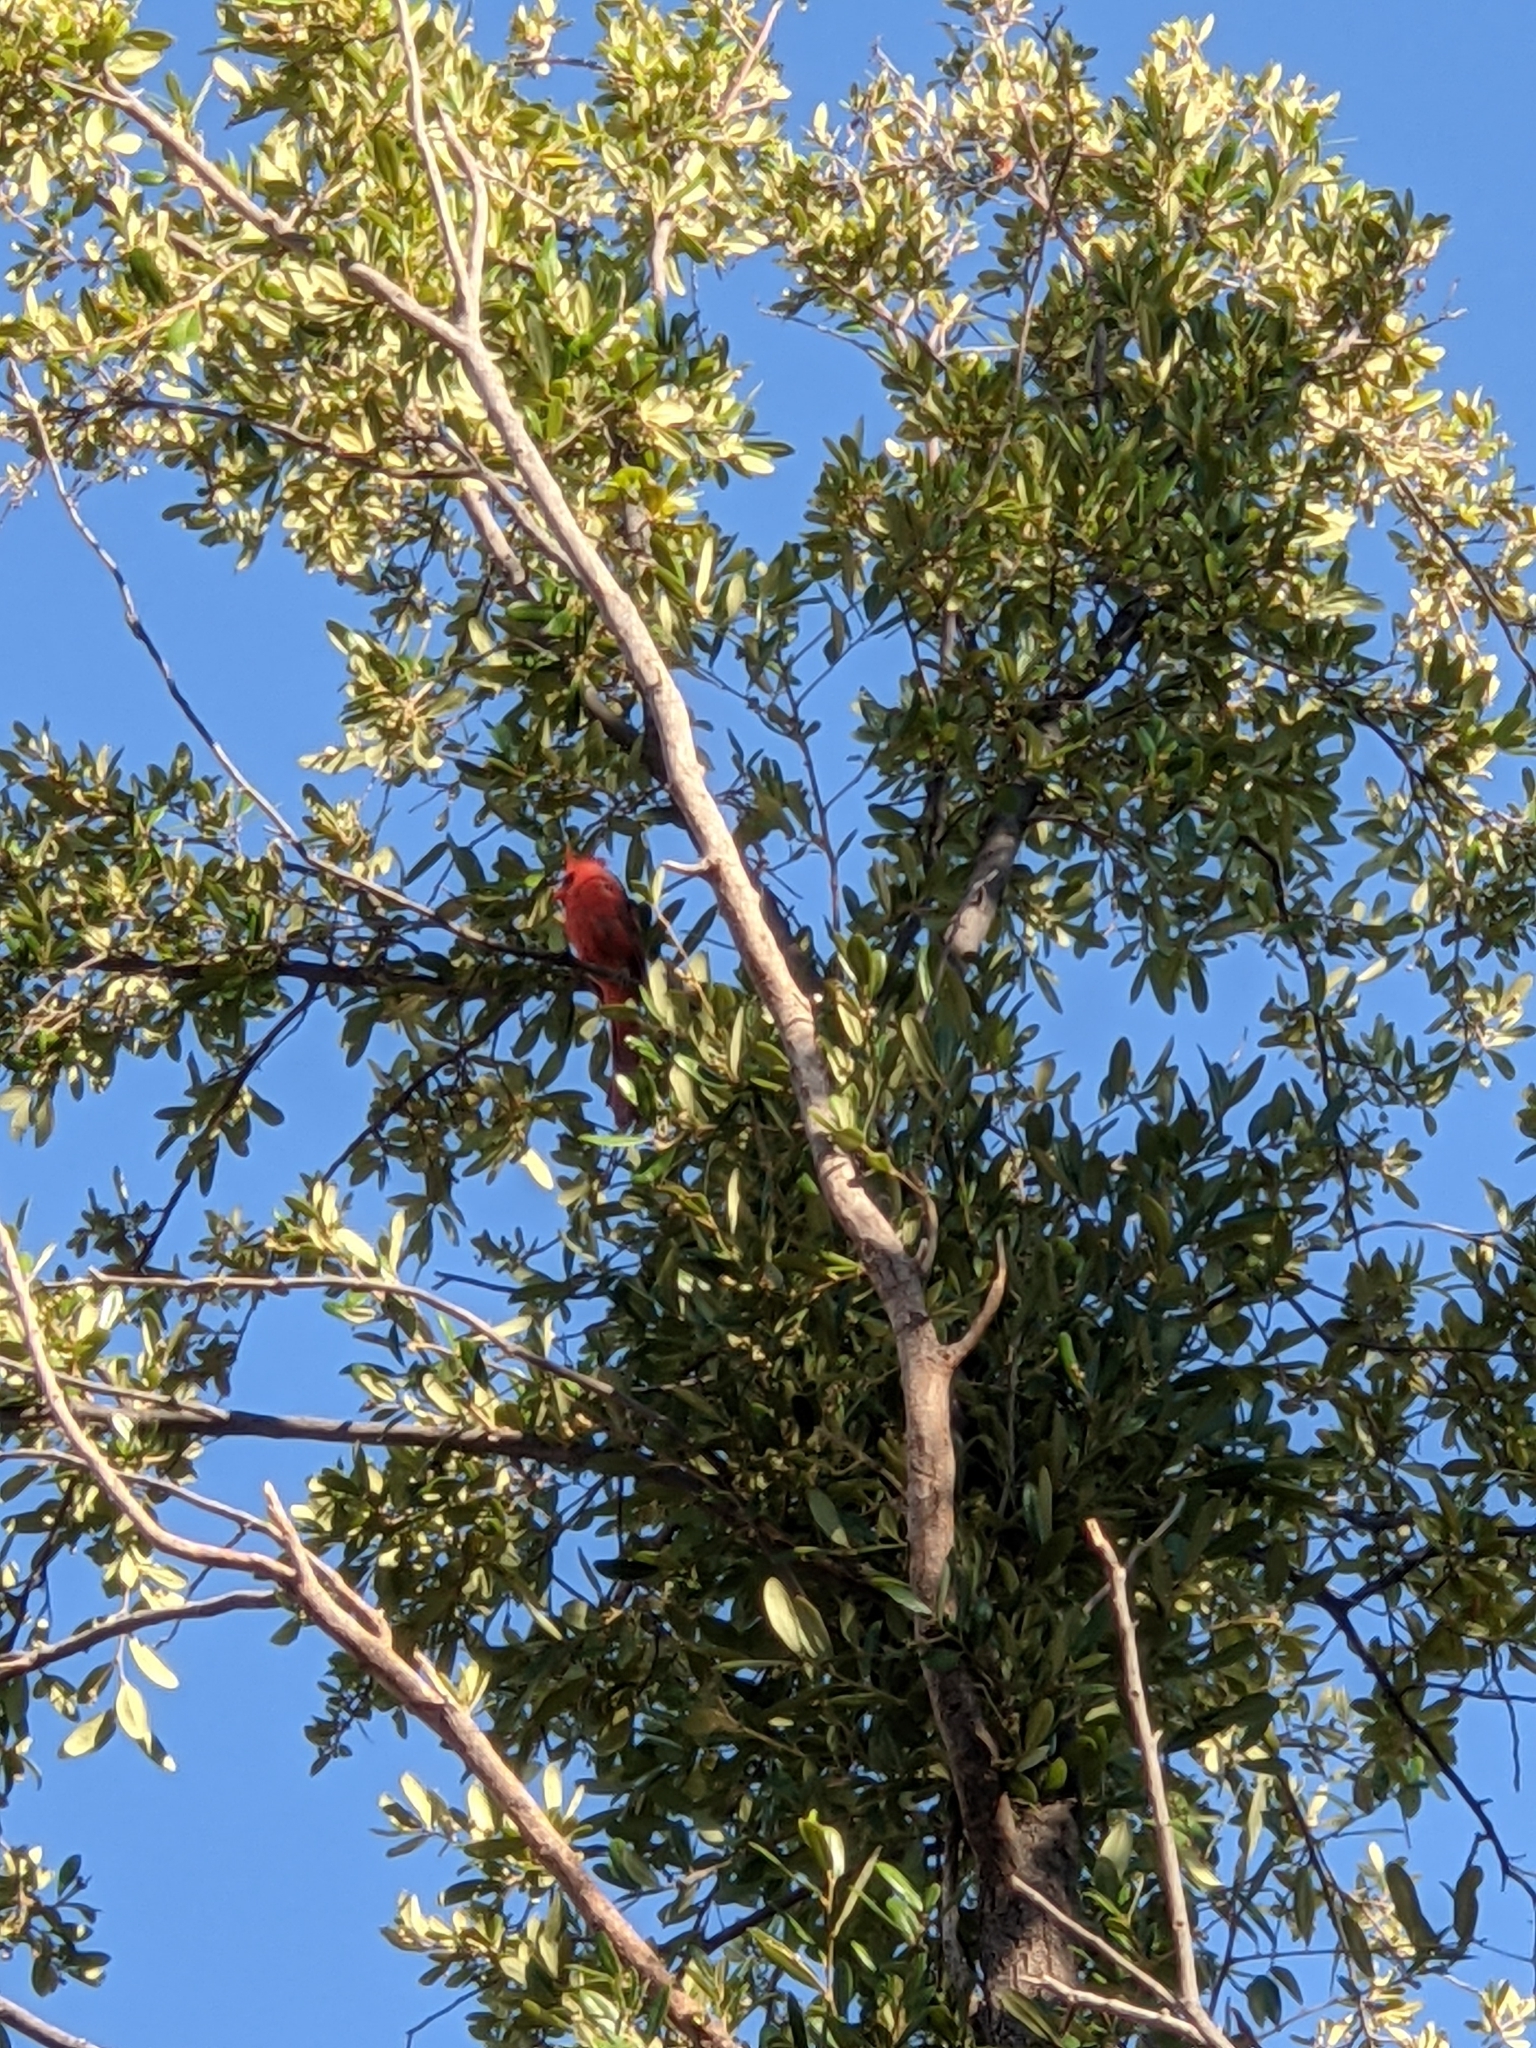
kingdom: Animalia
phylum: Chordata
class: Aves
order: Passeriformes
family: Cardinalidae
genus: Cardinalis
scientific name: Cardinalis cardinalis
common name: Northern cardinal
